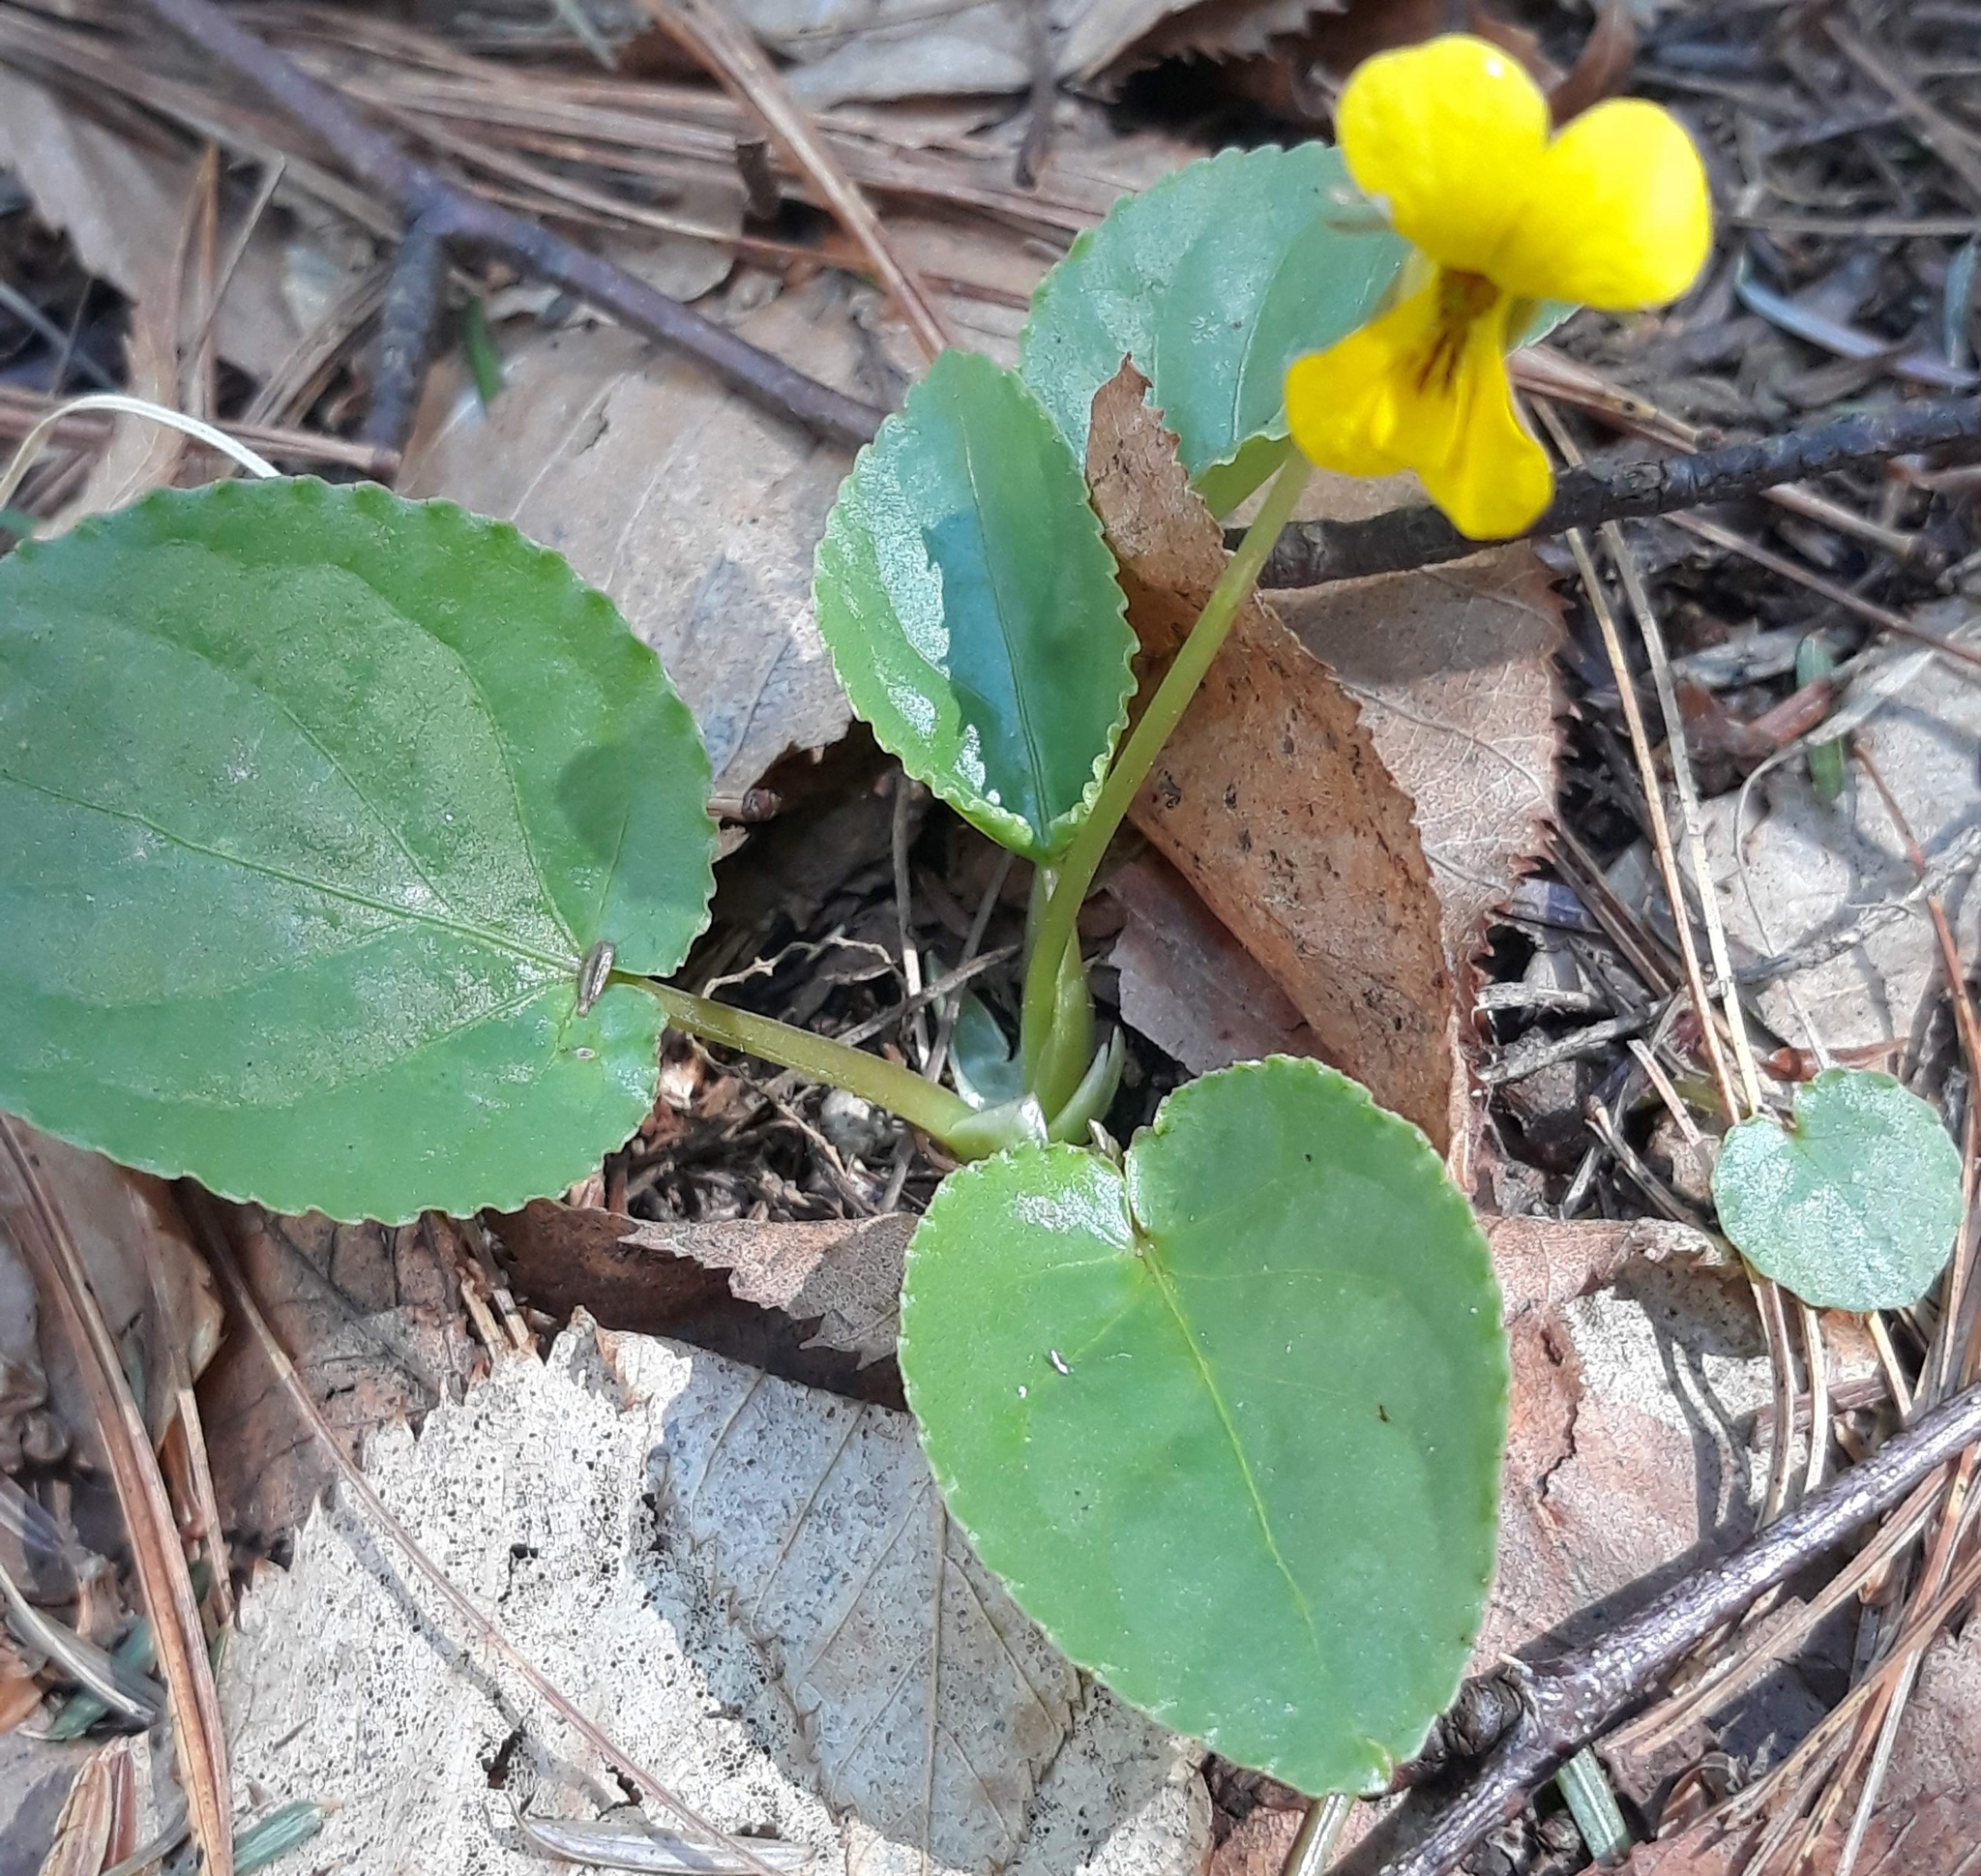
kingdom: Plantae
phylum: Tracheophyta
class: Magnoliopsida
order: Malpighiales
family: Violaceae
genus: Viola
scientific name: Viola rotundifolia
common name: Early yellow violet
